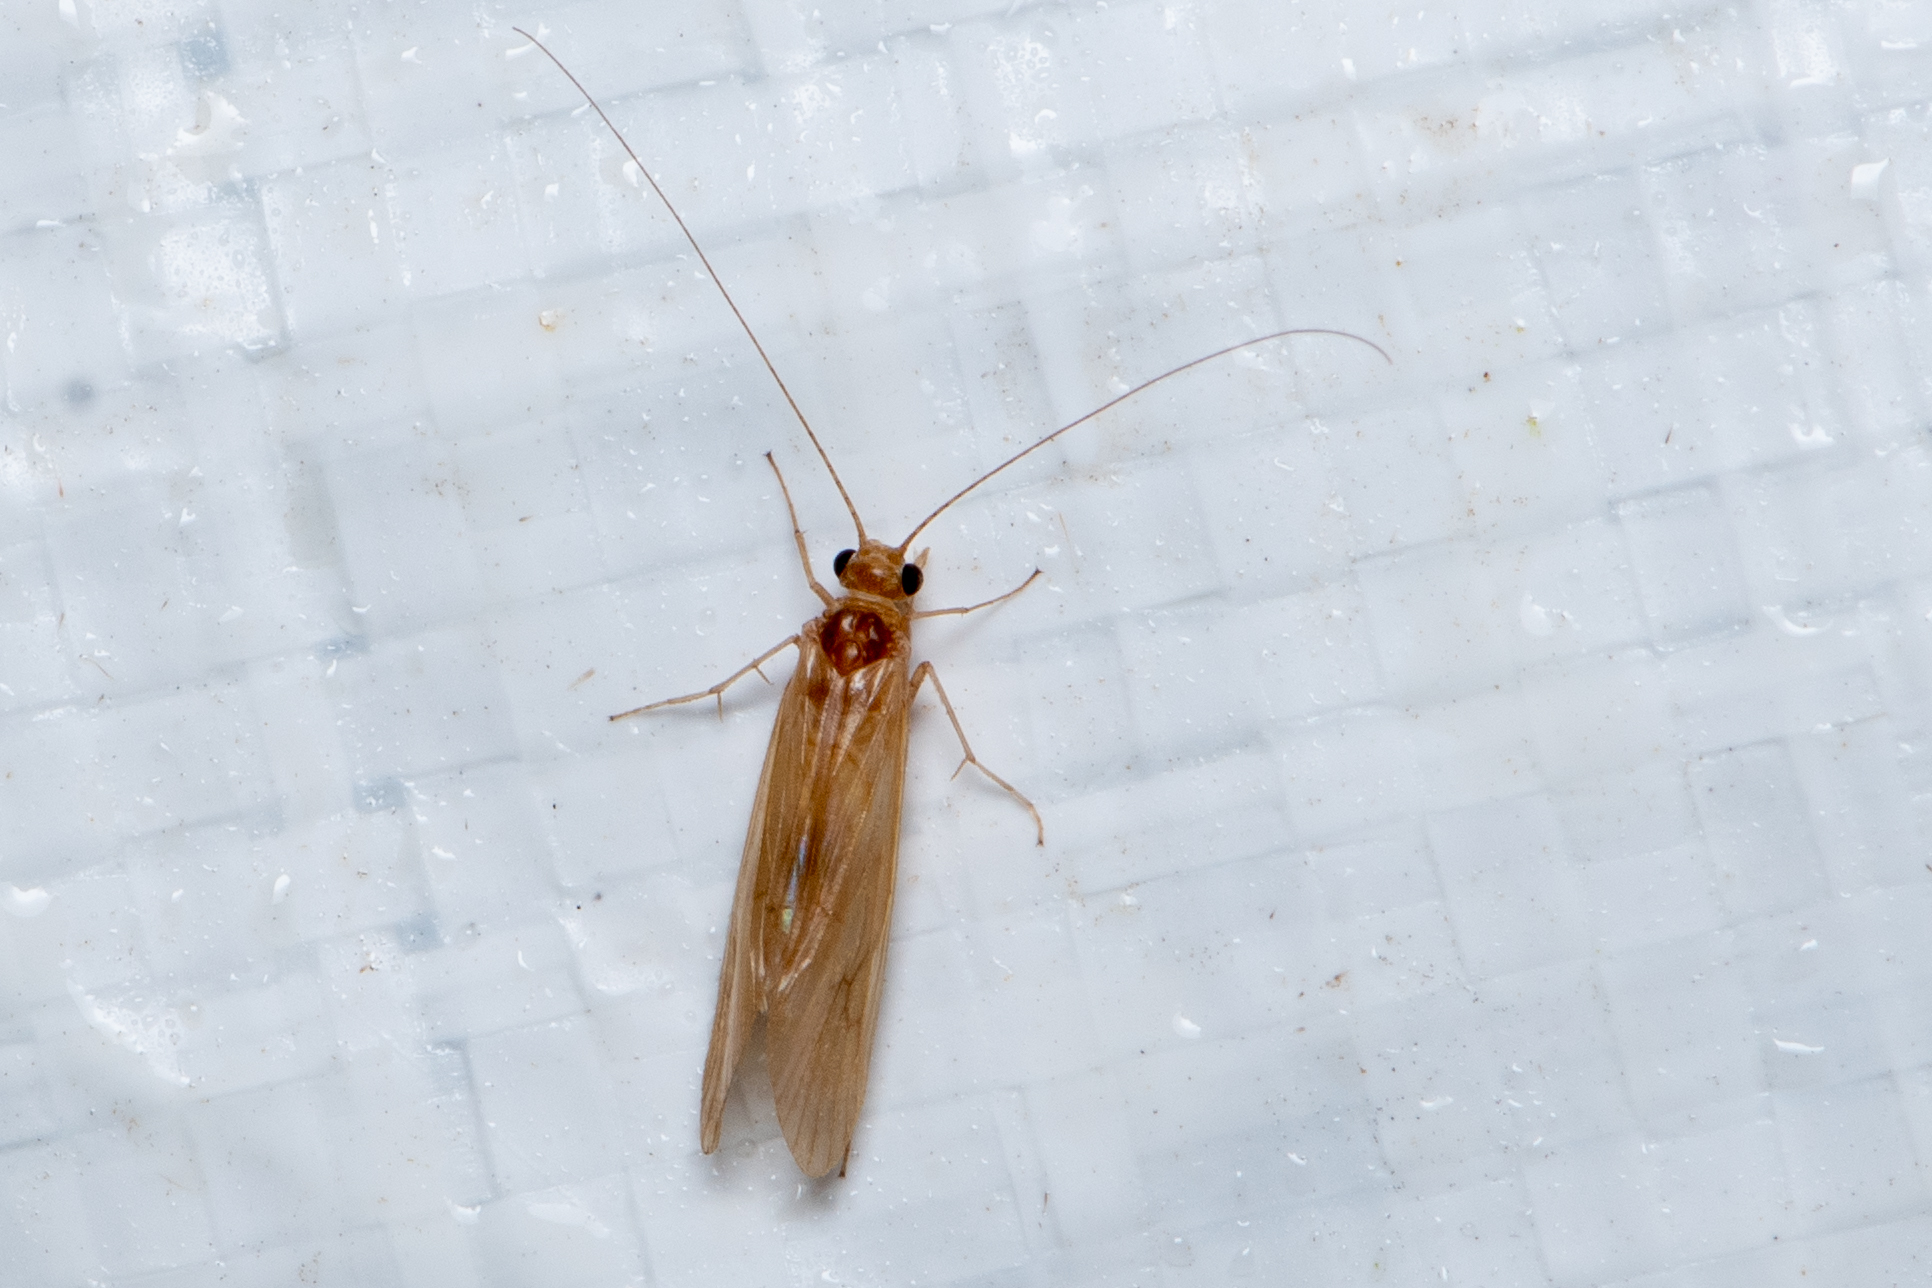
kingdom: Animalia
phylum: Arthropoda
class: Insecta
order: Trichoptera
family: Hydropsychidae
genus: Potamyia
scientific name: Potamyia flava
